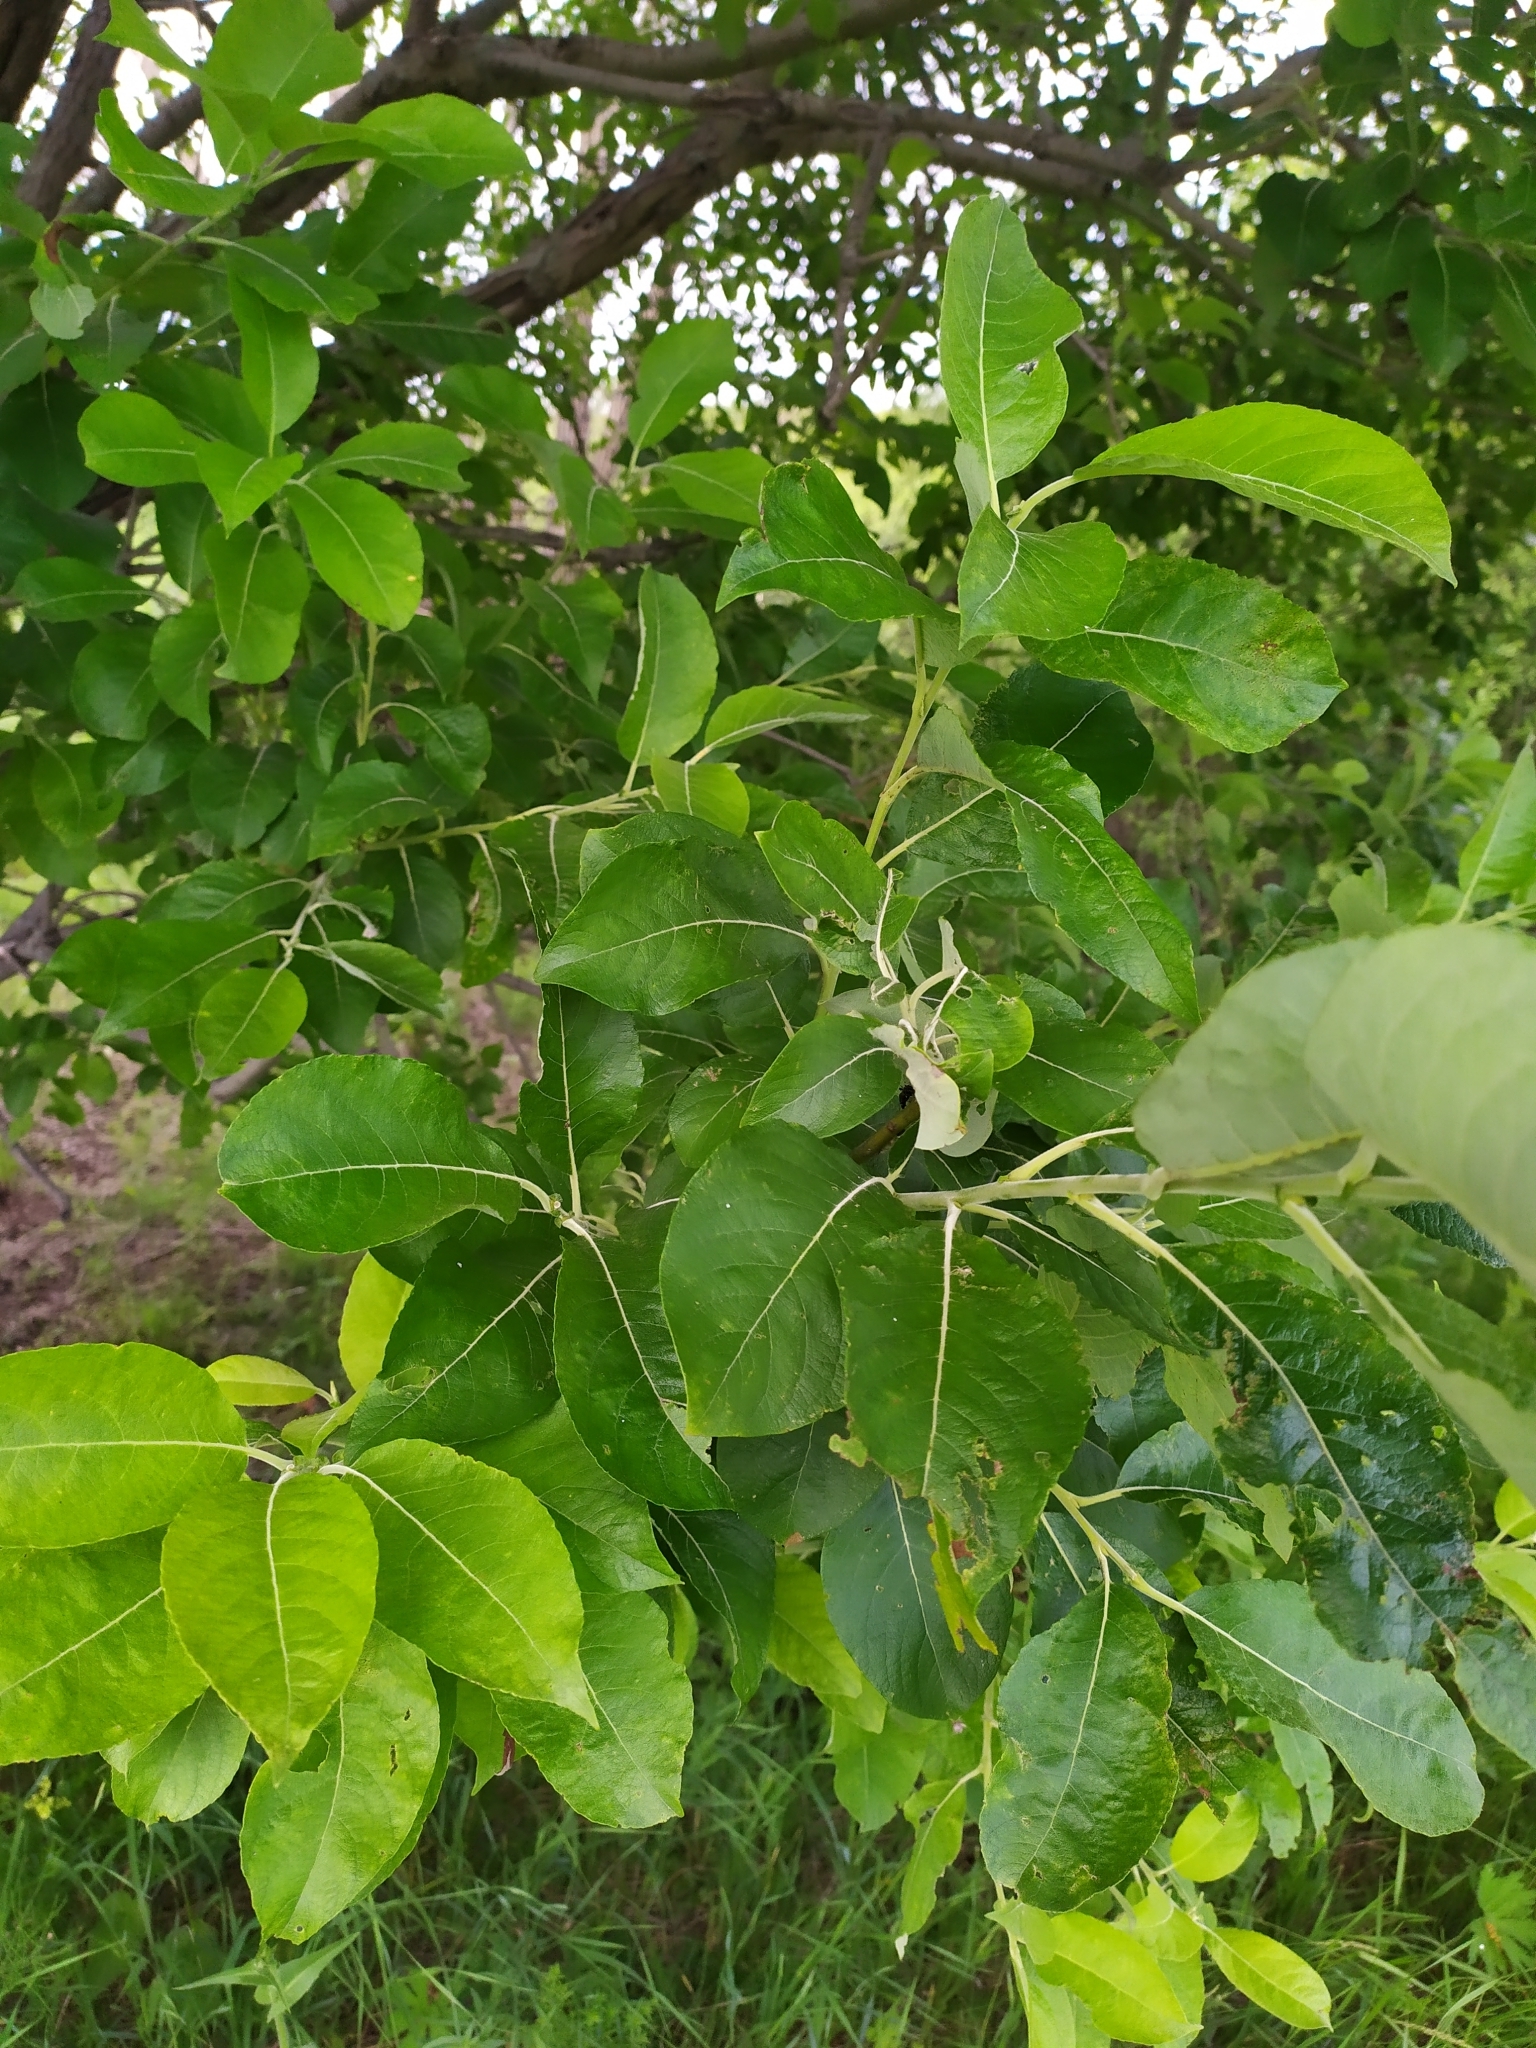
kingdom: Plantae
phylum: Tracheophyta
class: Magnoliopsida
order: Malpighiales
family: Salicaceae
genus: Salix
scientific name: Salix caprea
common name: Goat willow
